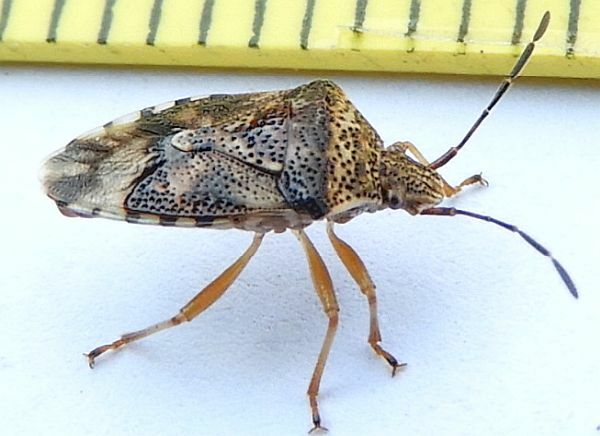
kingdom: Animalia
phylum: Arthropoda
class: Insecta
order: Hemiptera
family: Acanthosomatidae
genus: Elasmucha
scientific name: Elasmucha lateralis
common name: Shield bug
